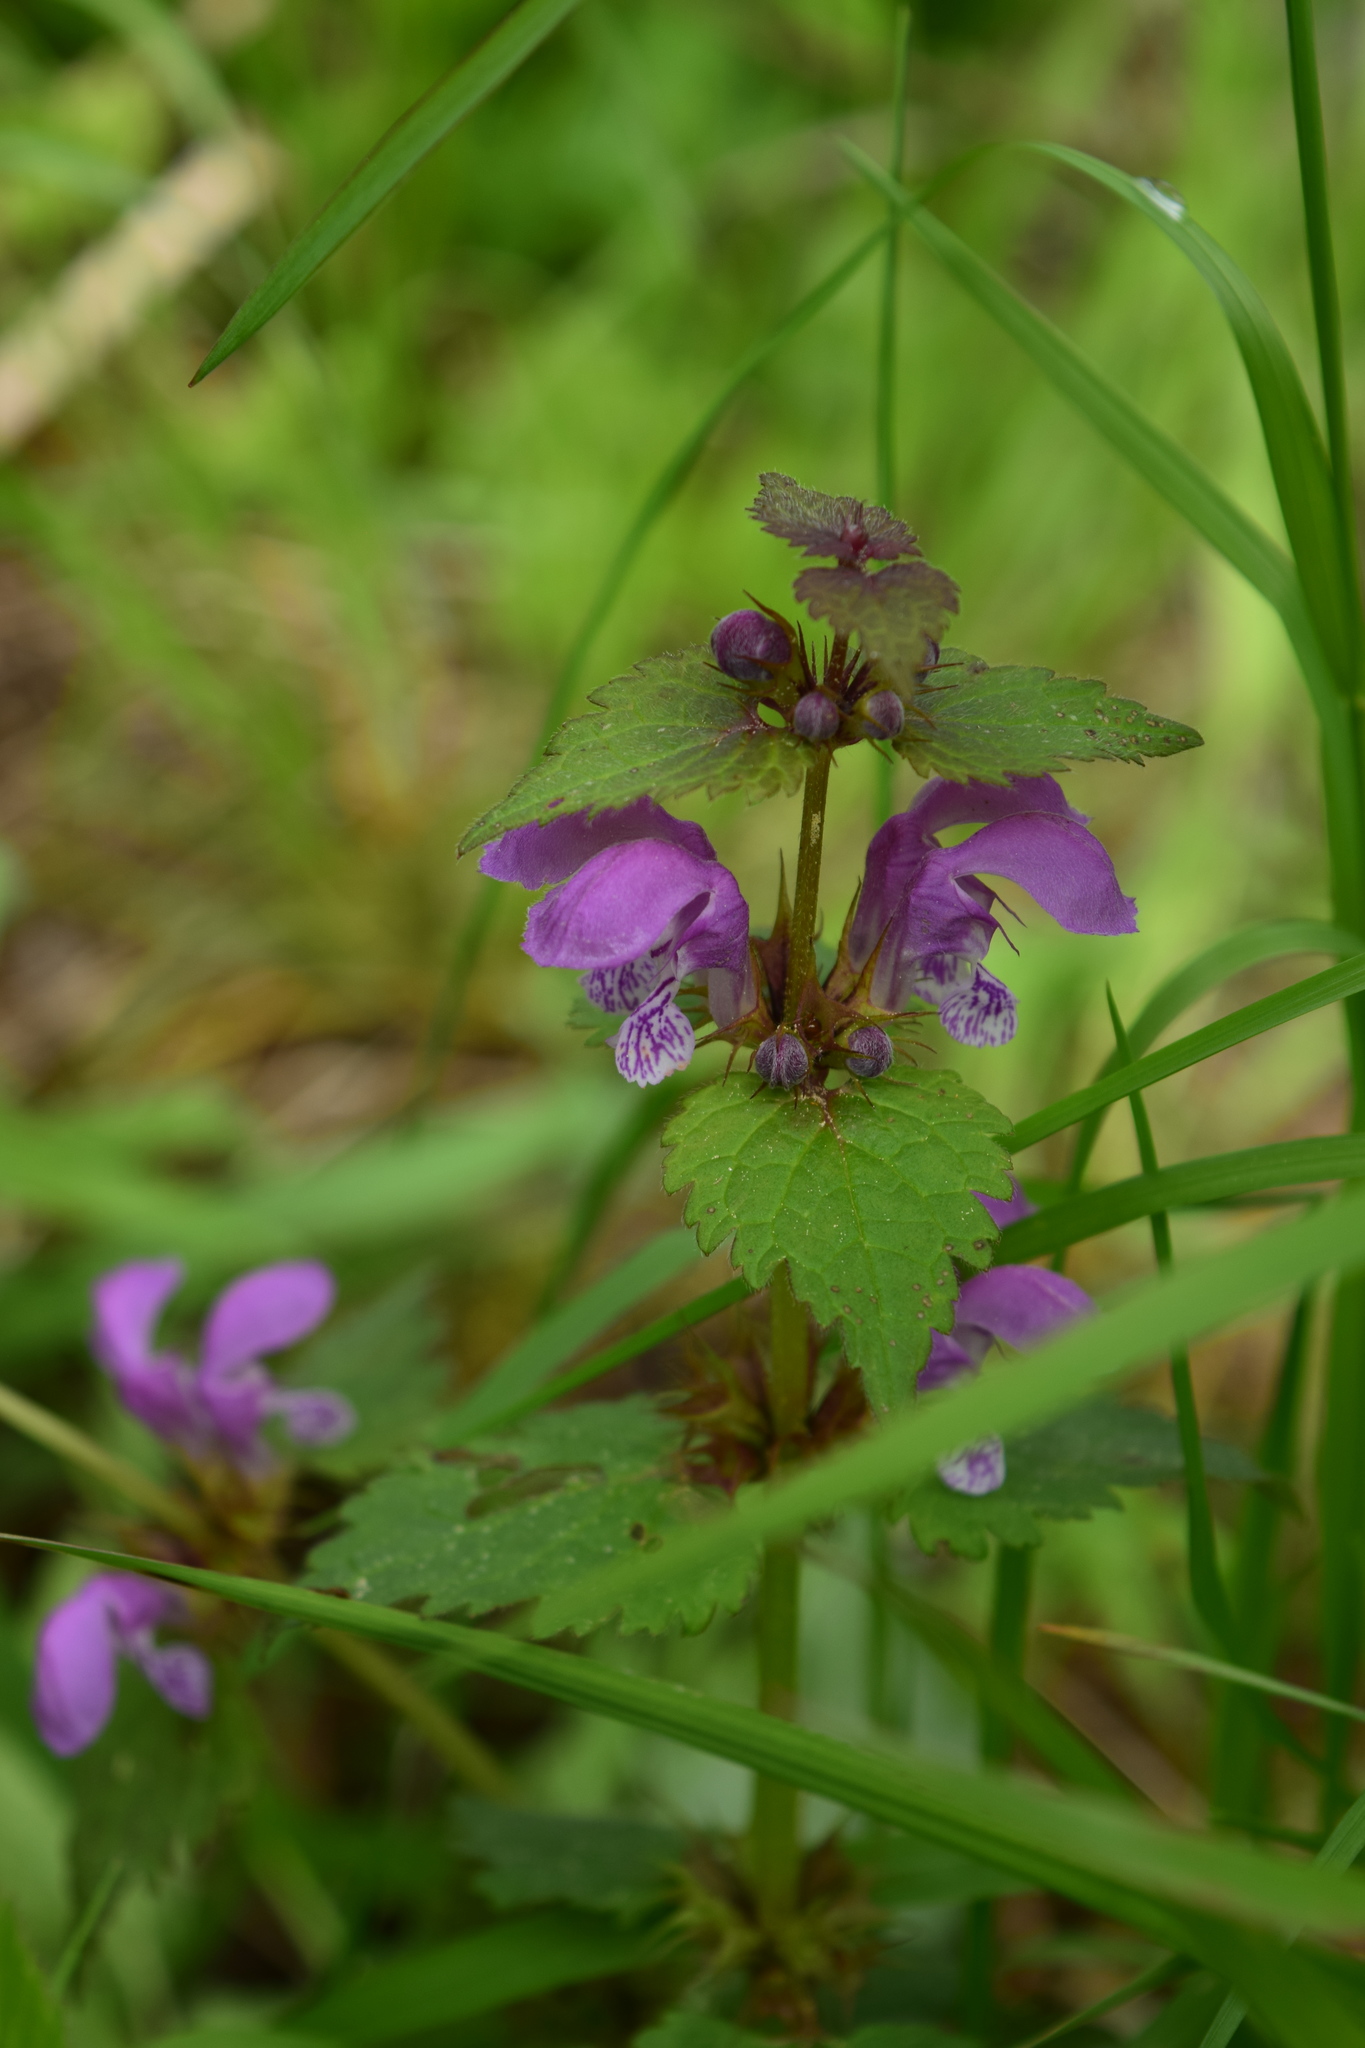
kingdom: Plantae
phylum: Tracheophyta
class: Magnoliopsida
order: Lamiales
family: Lamiaceae
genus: Lamium
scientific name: Lamium maculatum
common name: Spotted dead-nettle
